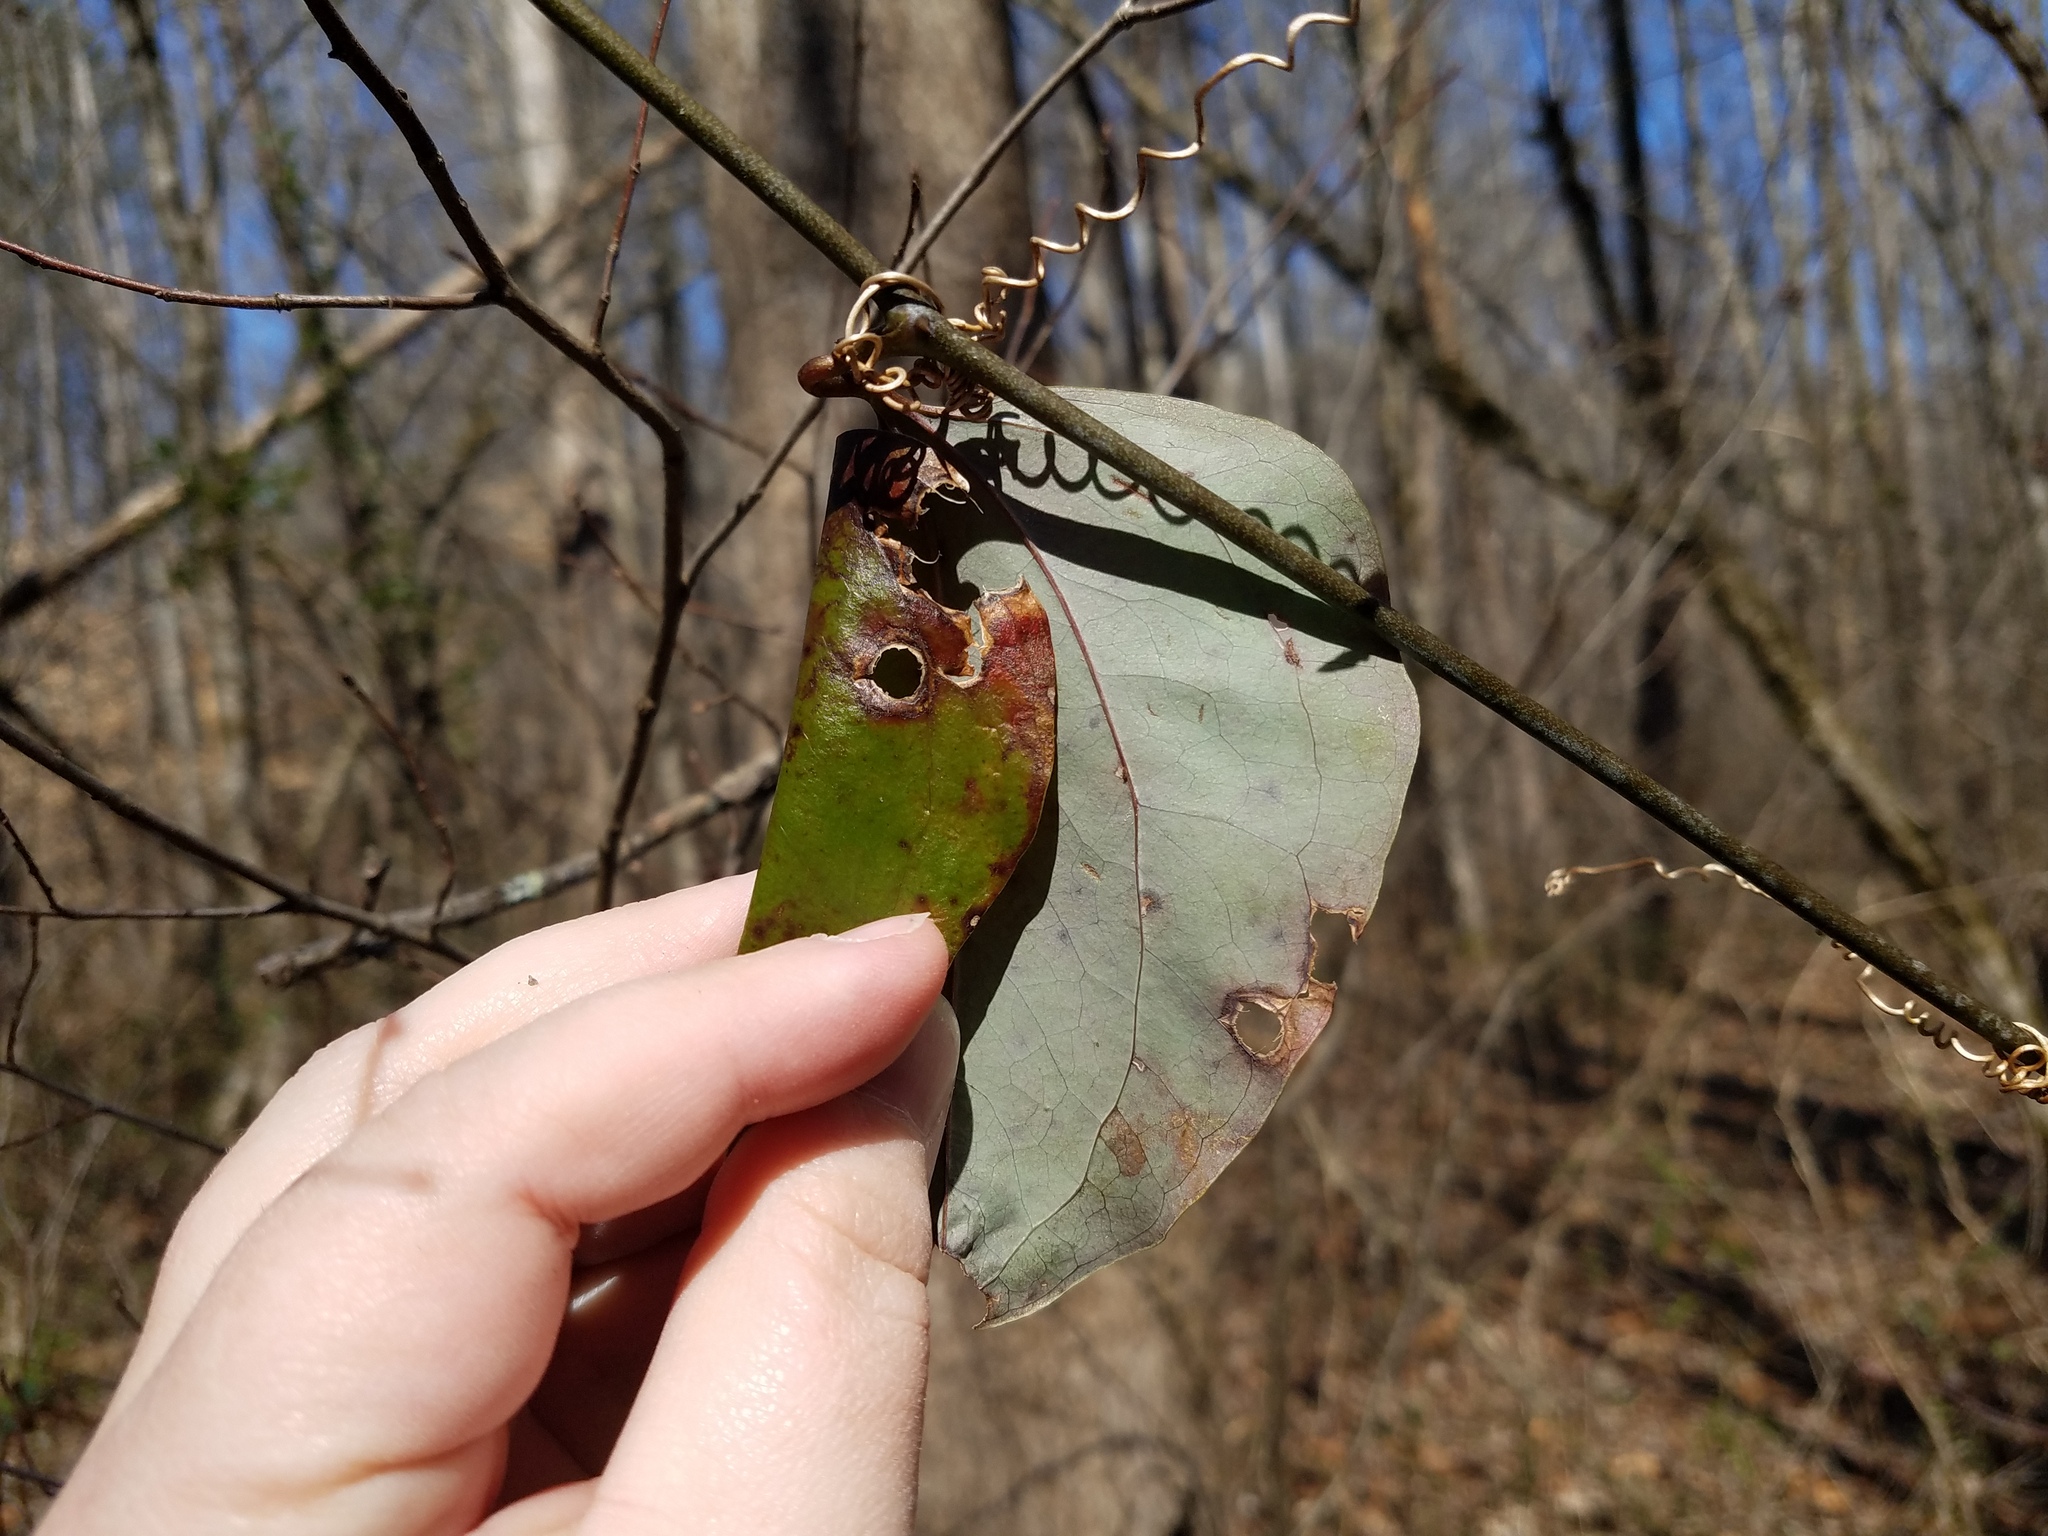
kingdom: Plantae
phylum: Tracheophyta
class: Liliopsida
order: Liliales
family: Smilacaceae
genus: Smilax
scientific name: Smilax glauca
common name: Cat greenbrier
